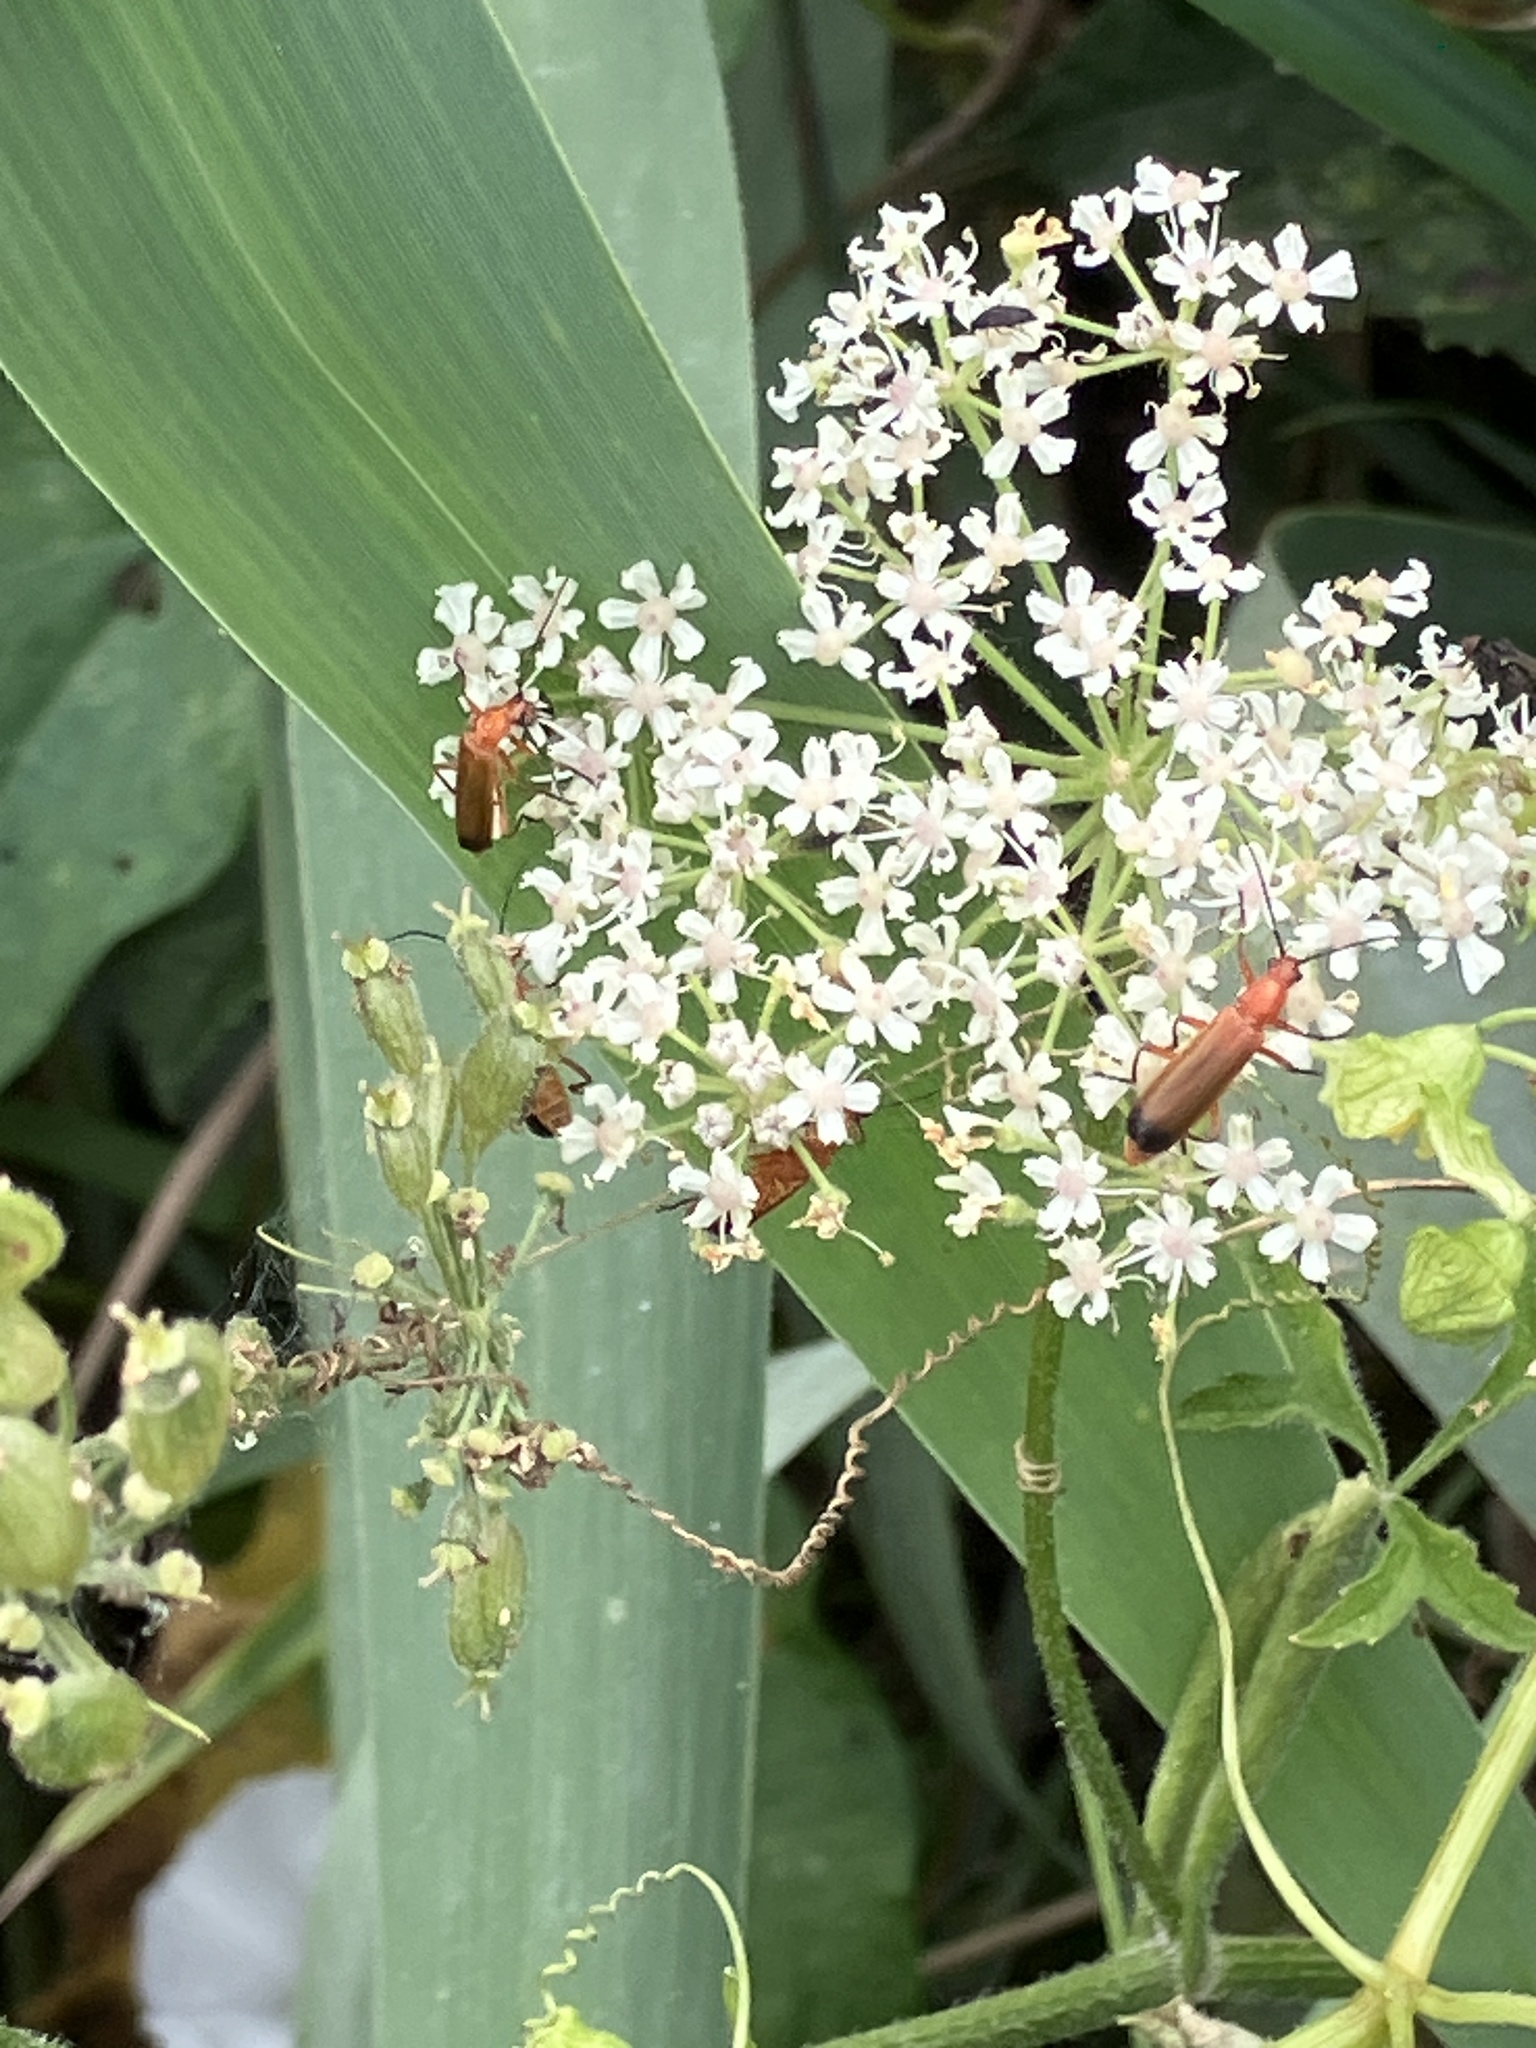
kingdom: Animalia
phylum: Arthropoda
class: Insecta
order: Coleoptera
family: Cantharidae
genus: Rhagonycha
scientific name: Rhagonycha fulva
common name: Common red soldier beetle
